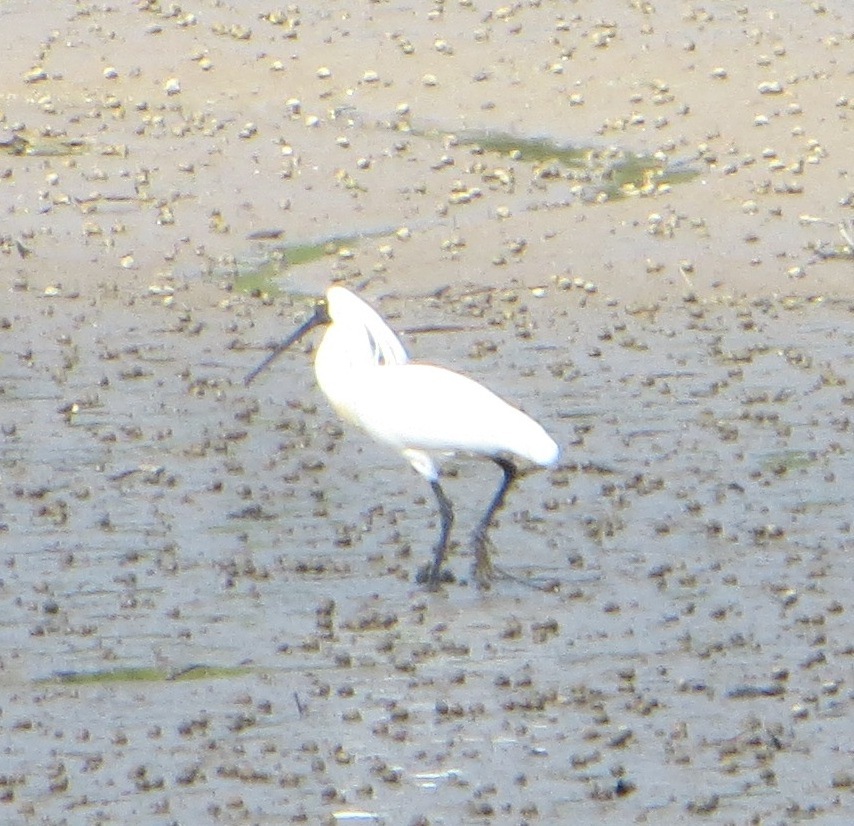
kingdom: Animalia
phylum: Chordata
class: Aves
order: Pelecaniformes
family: Threskiornithidae
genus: Platalea
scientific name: Platalea regia
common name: Royal spoonbill
